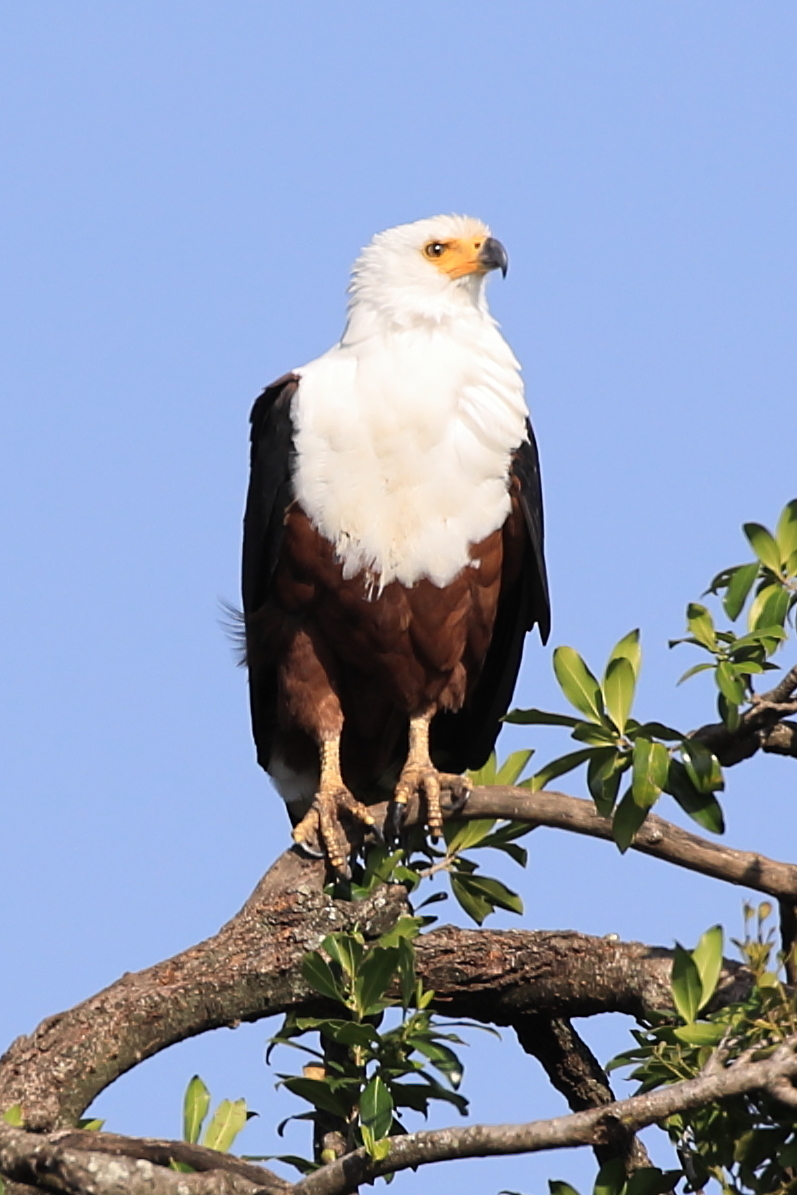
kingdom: Animalia
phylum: Chordata
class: Aves
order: Accipitriformes
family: Accipitridae
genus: Haliaeetus
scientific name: Haliaeetus vocifer
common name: African fish eagle
